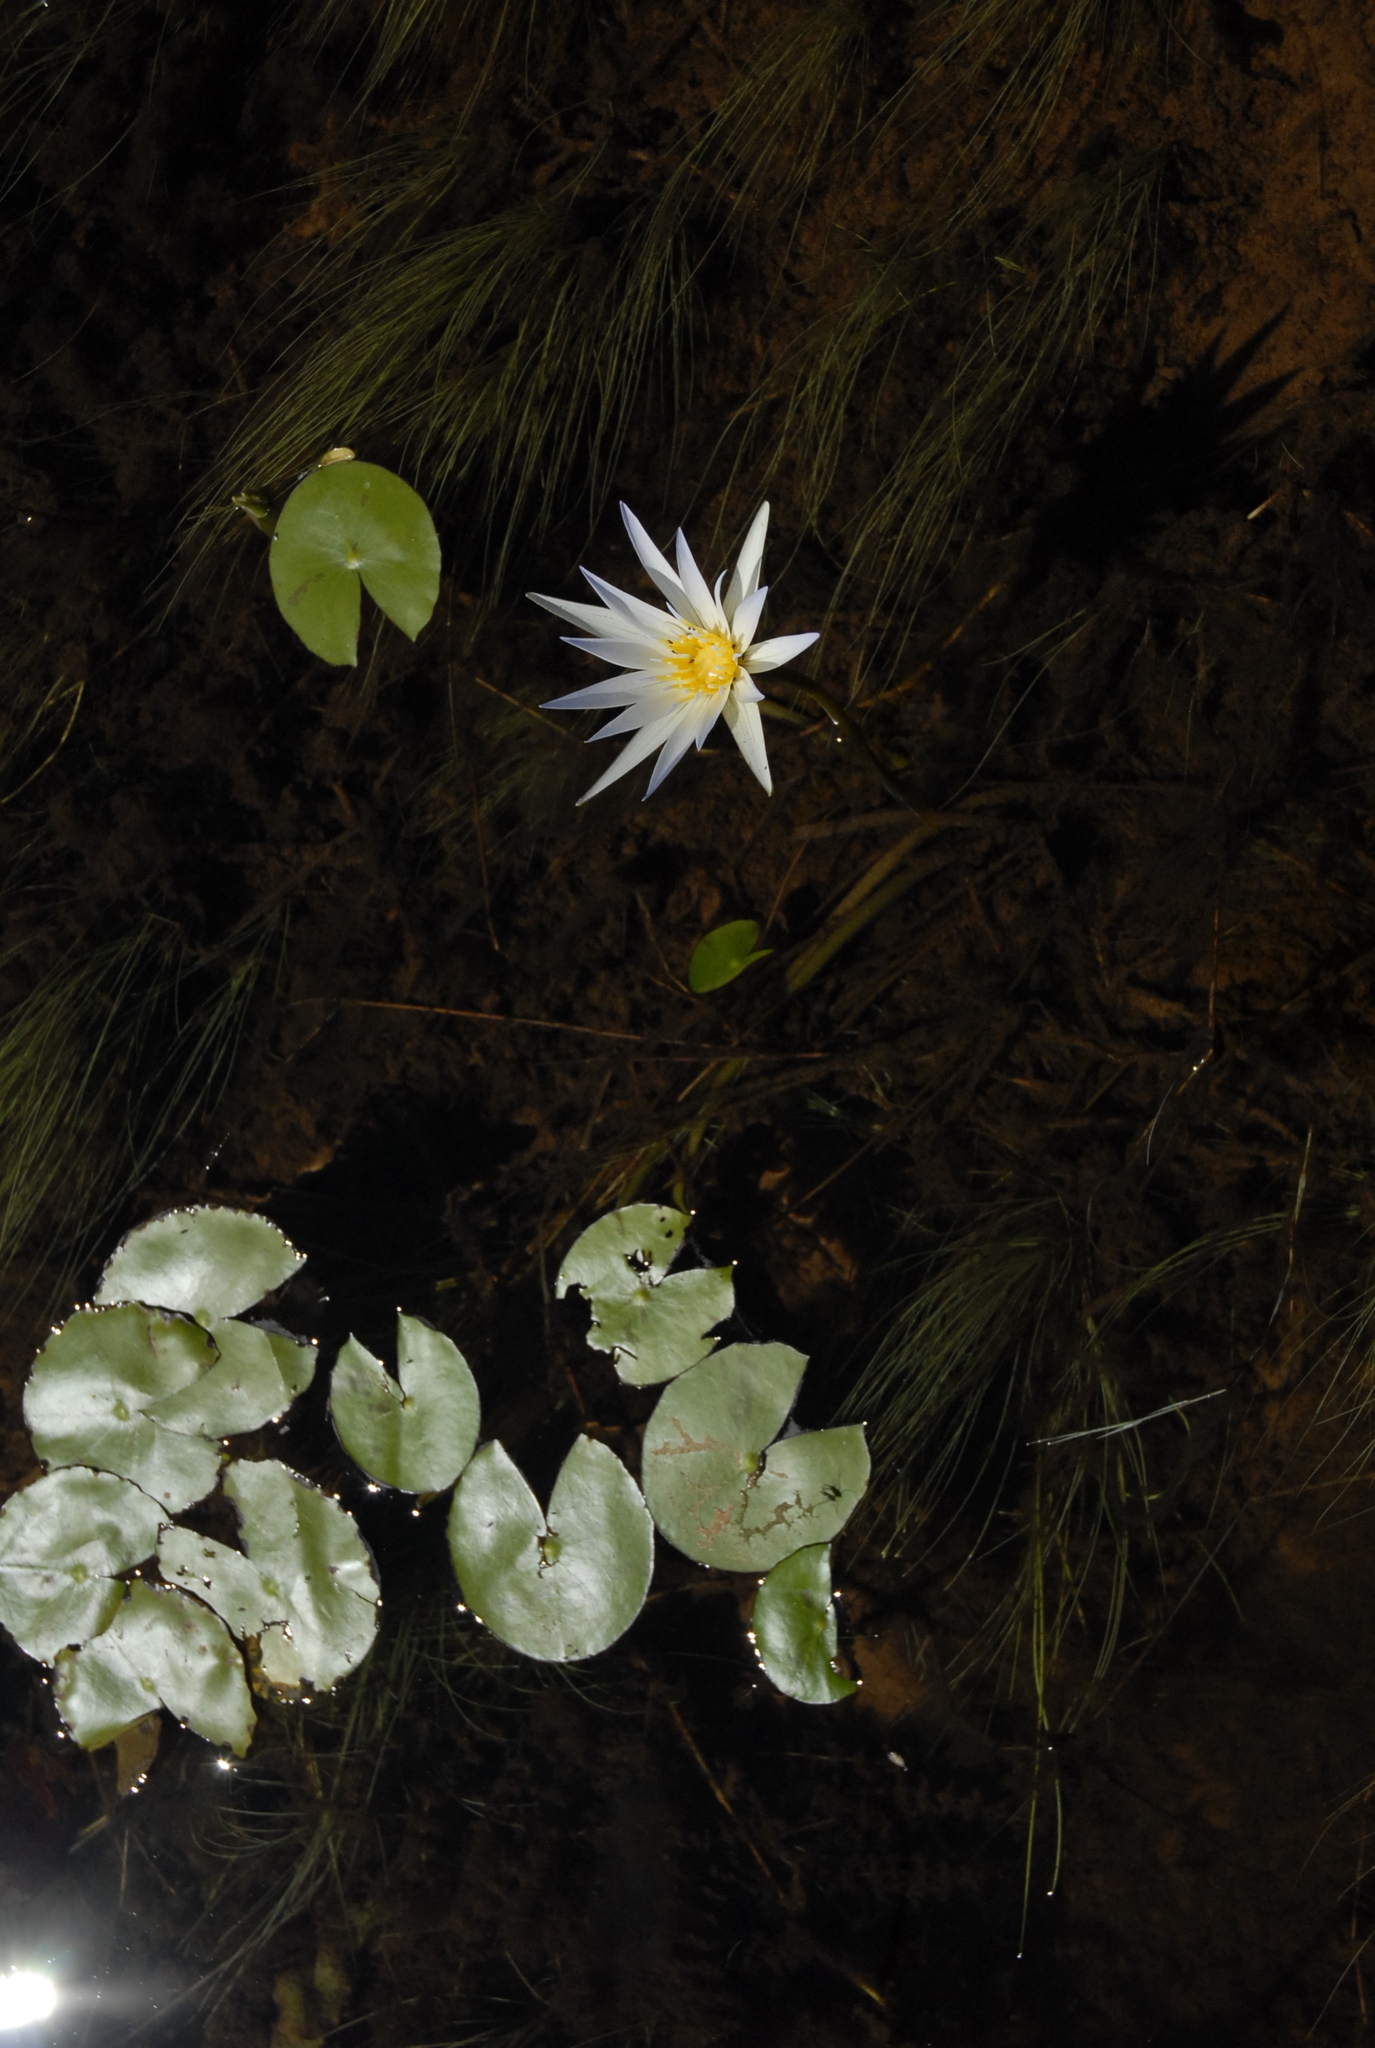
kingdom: Plantae
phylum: Tracheophyta
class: Magnoliopsida
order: Nymphaeales
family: Nymphaeaceae
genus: Nymphaea
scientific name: Nymphaea nouchali
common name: Blue lotus
